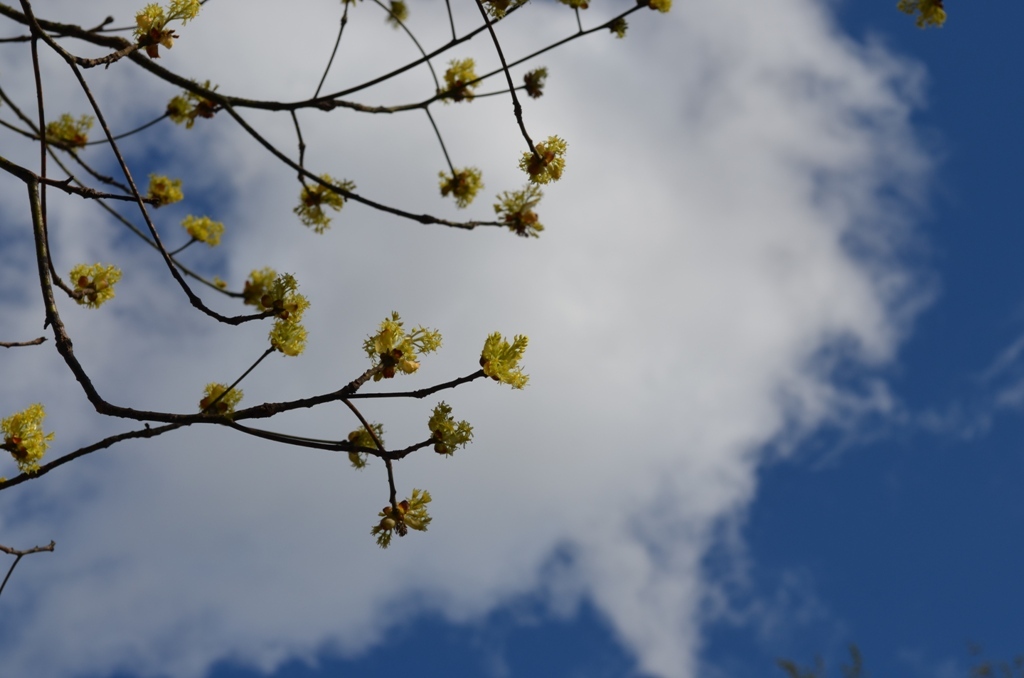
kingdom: Plantae
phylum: Tracheophyta
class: Magnoliopsida
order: Laurales
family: Lauraceae
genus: Sassafras
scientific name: Sassafras albidum
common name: Sassafras
